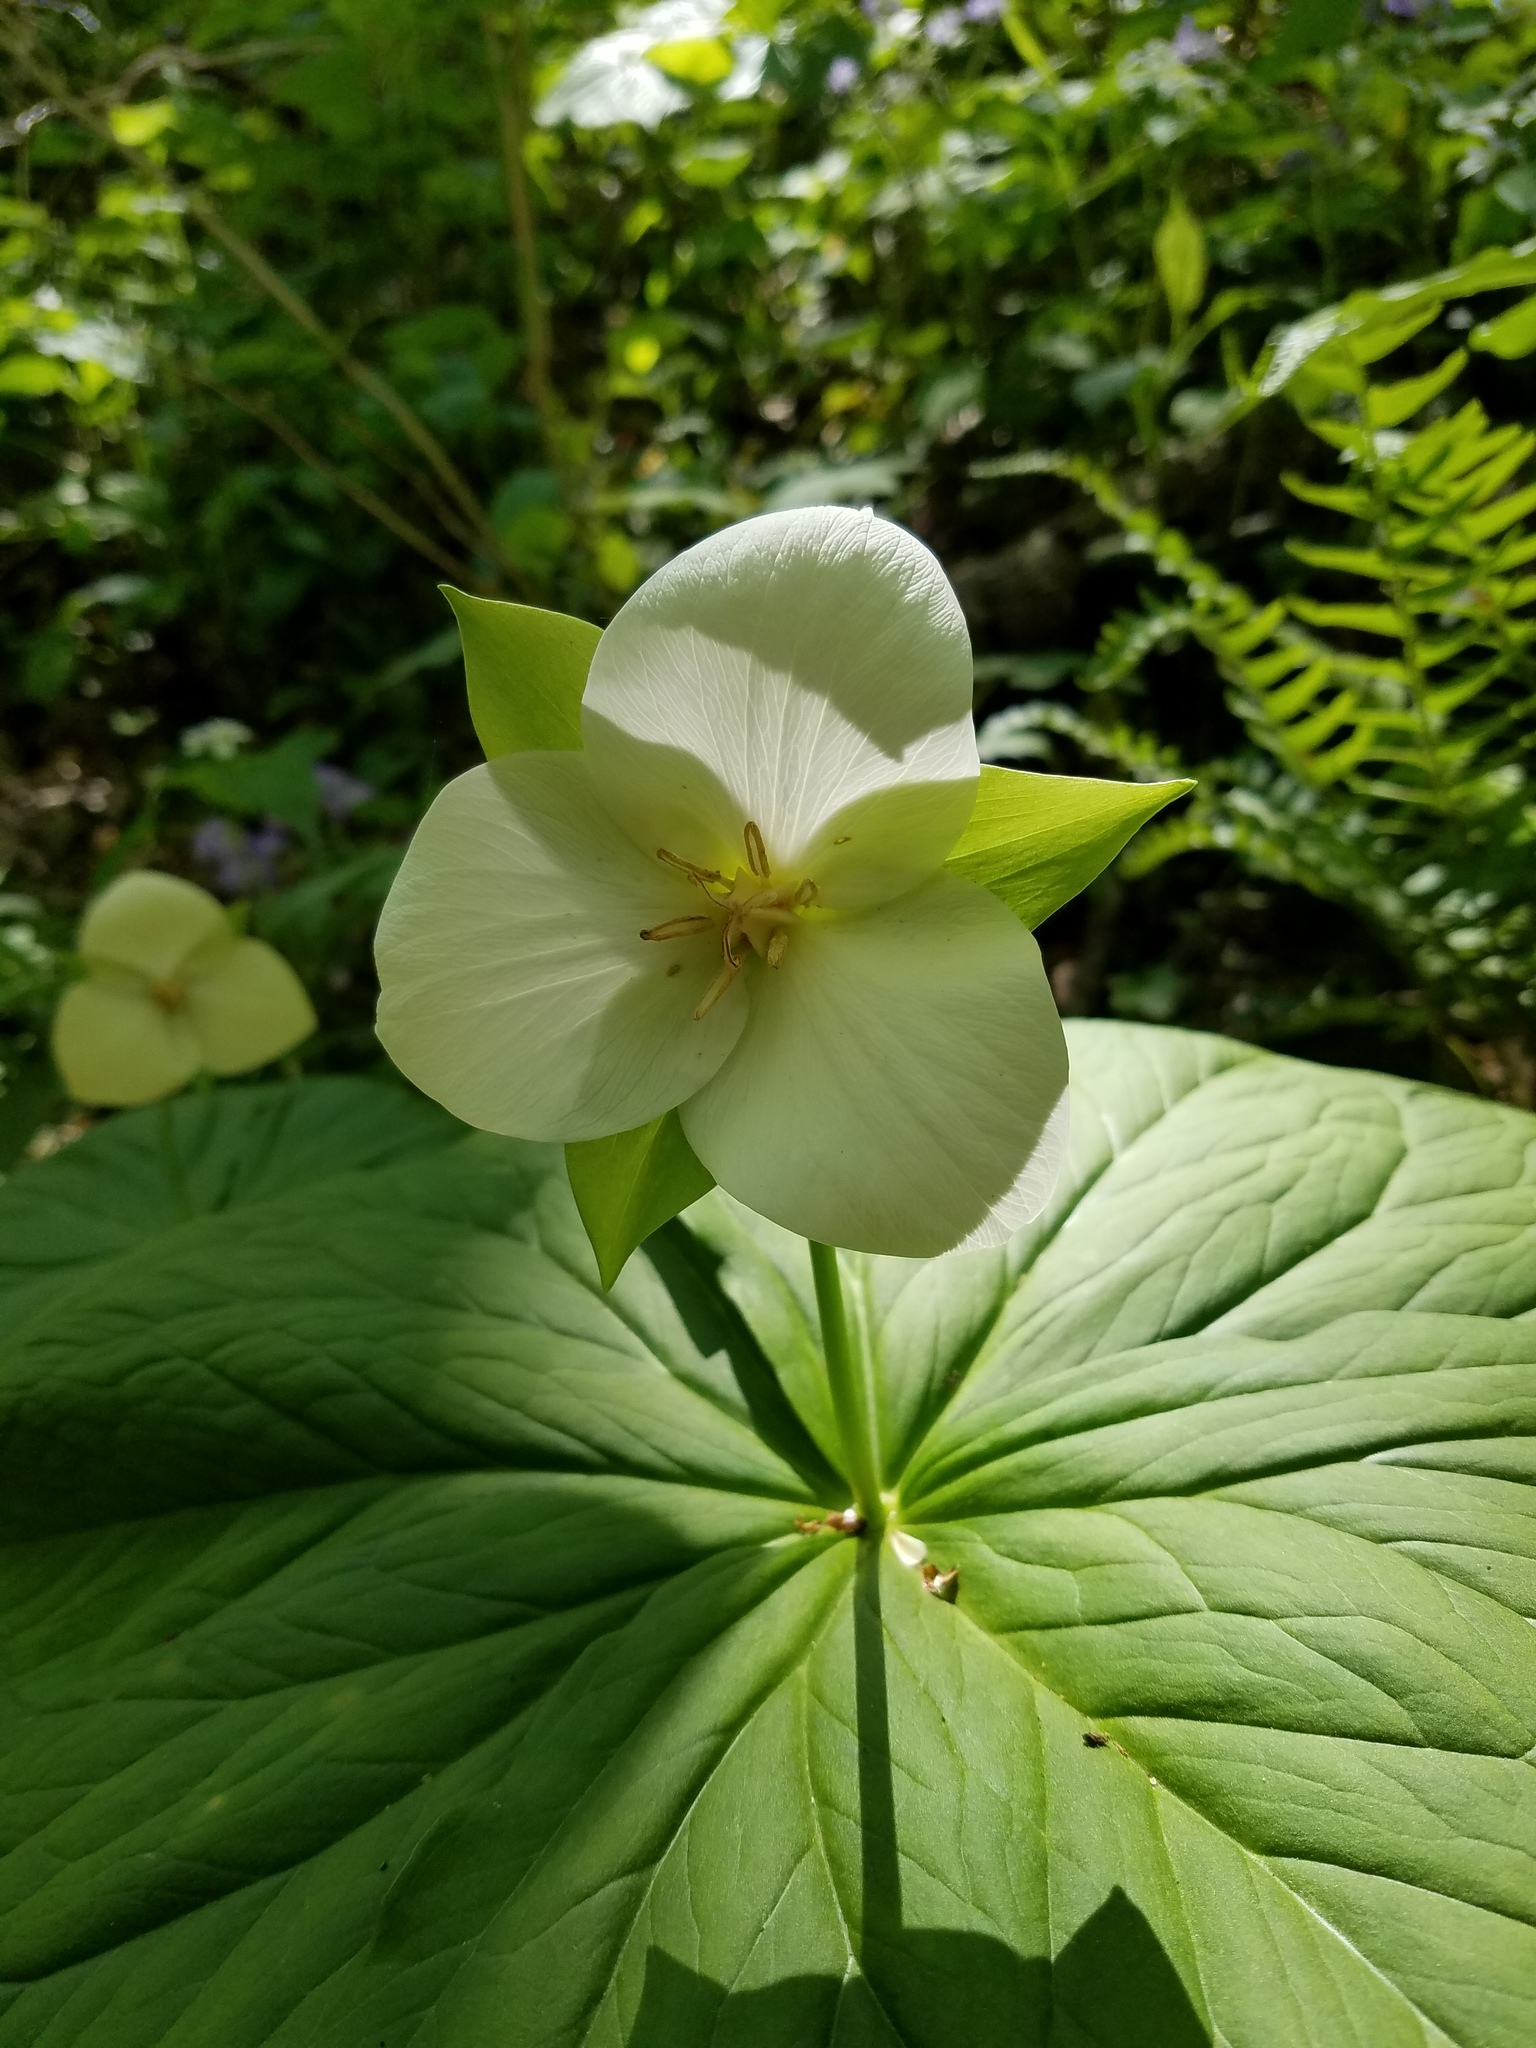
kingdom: Plantae
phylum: Tracheophyta
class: Liliopsida
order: Liliales
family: Melanthiaceae
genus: Trillium
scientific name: Trillium flexipes
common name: Drooping trillium
